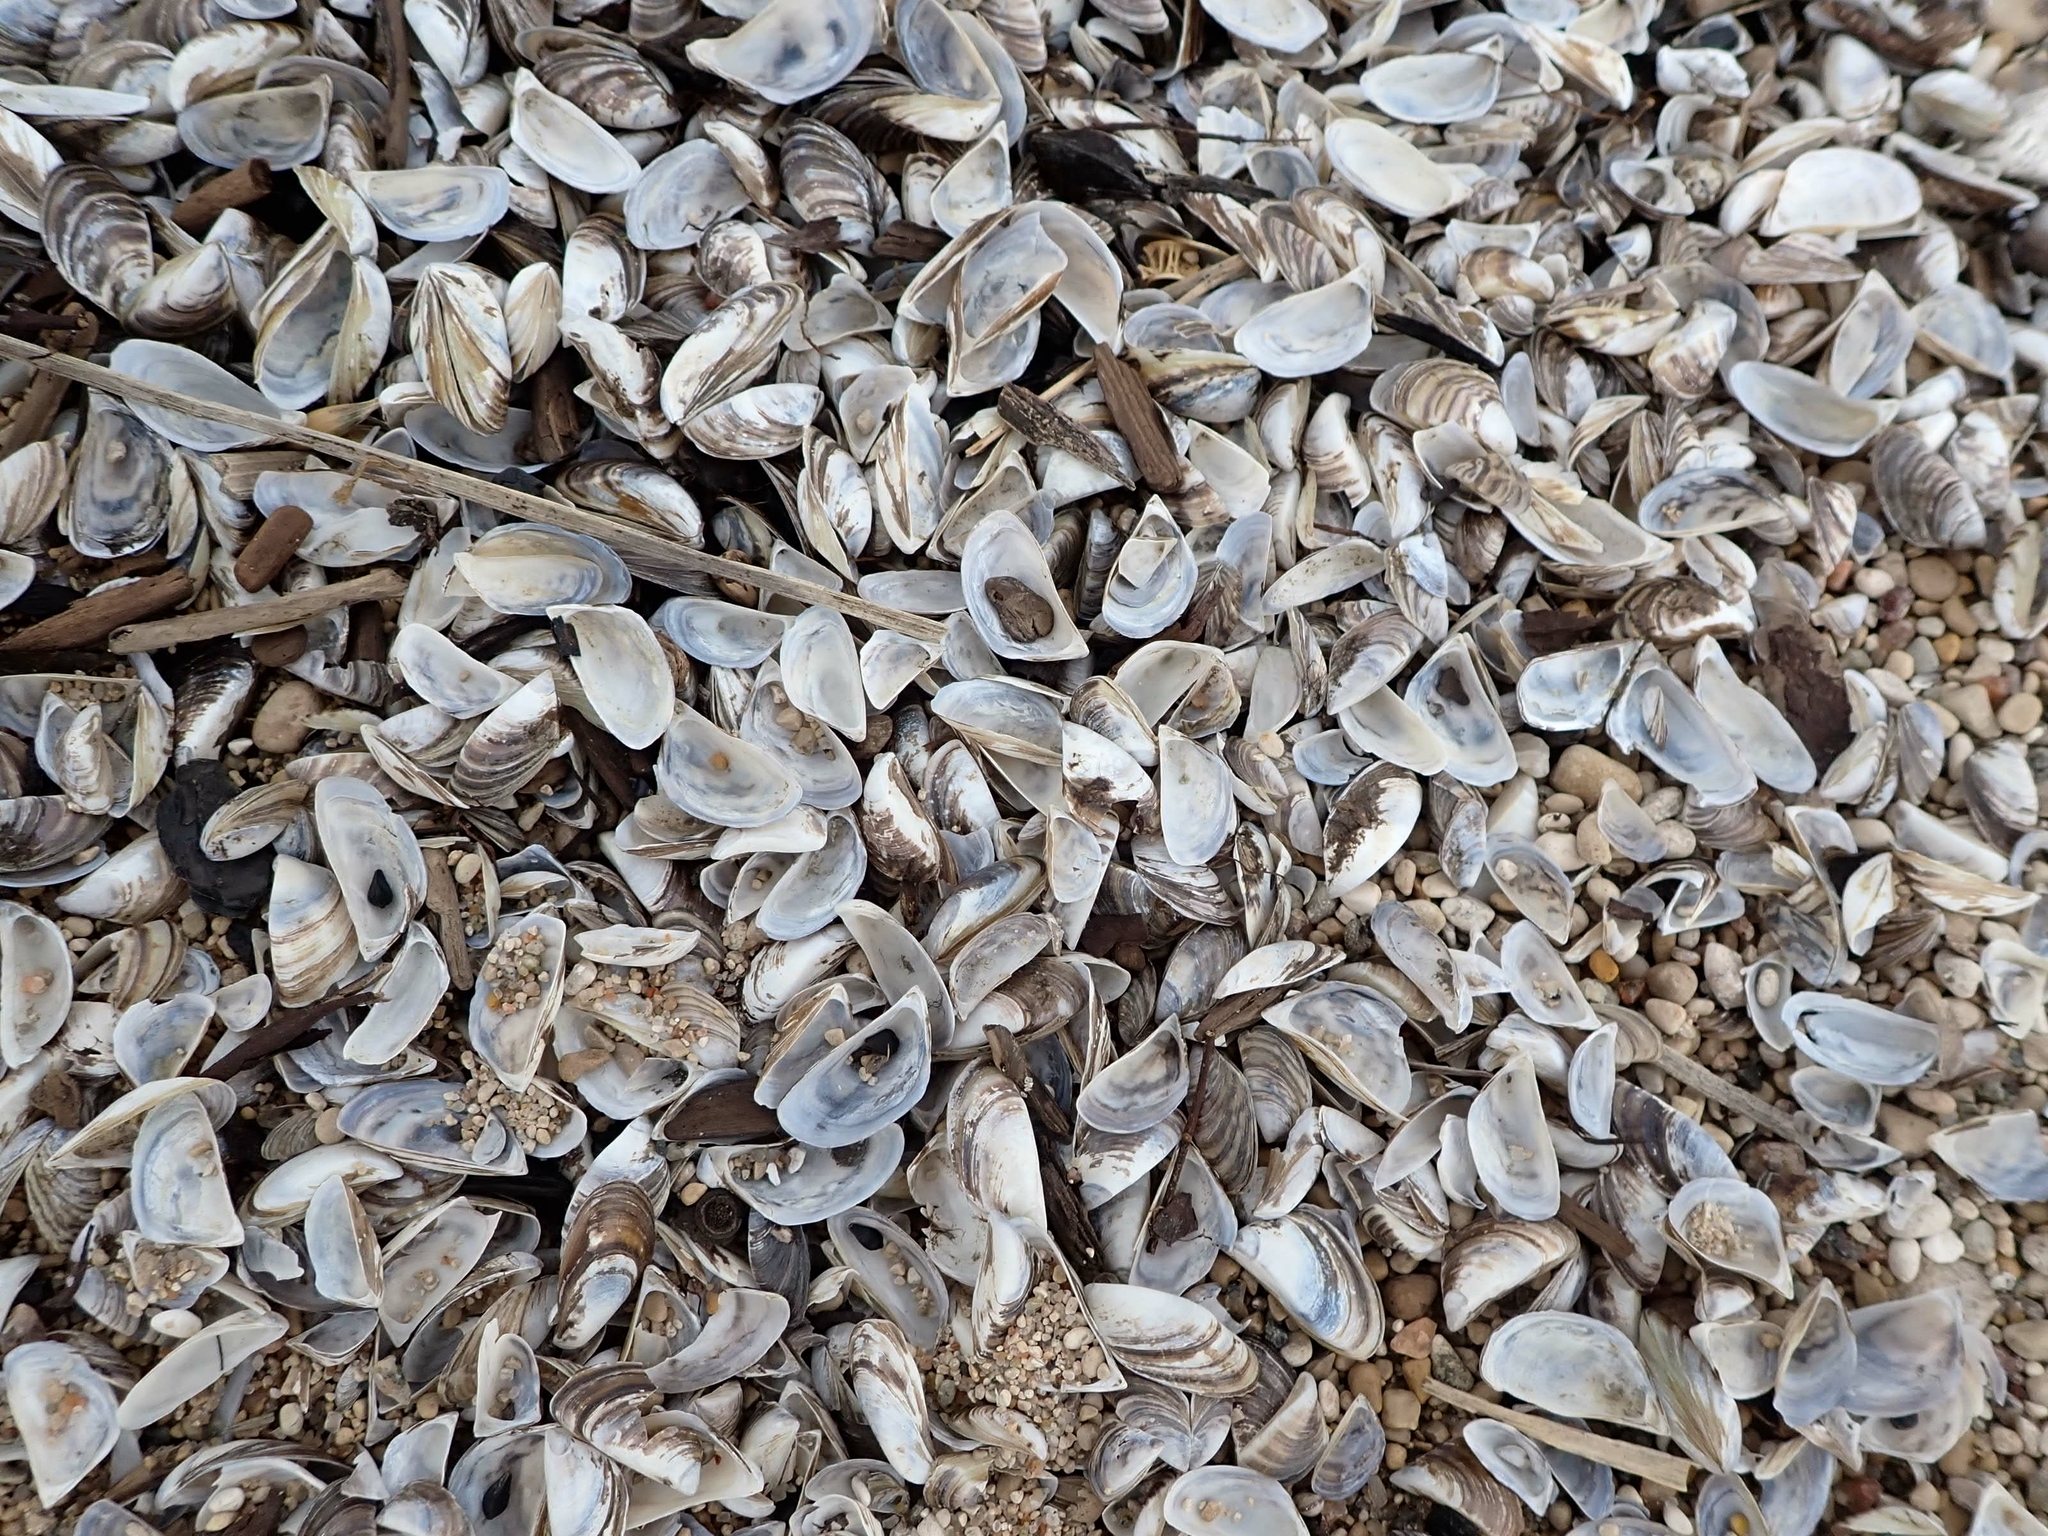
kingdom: Animalia
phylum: Mollusca
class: Bivalvia
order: Myida
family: Dreissenidae
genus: Dreissena
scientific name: Dreissena polymorpha
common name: Zebra mussel
